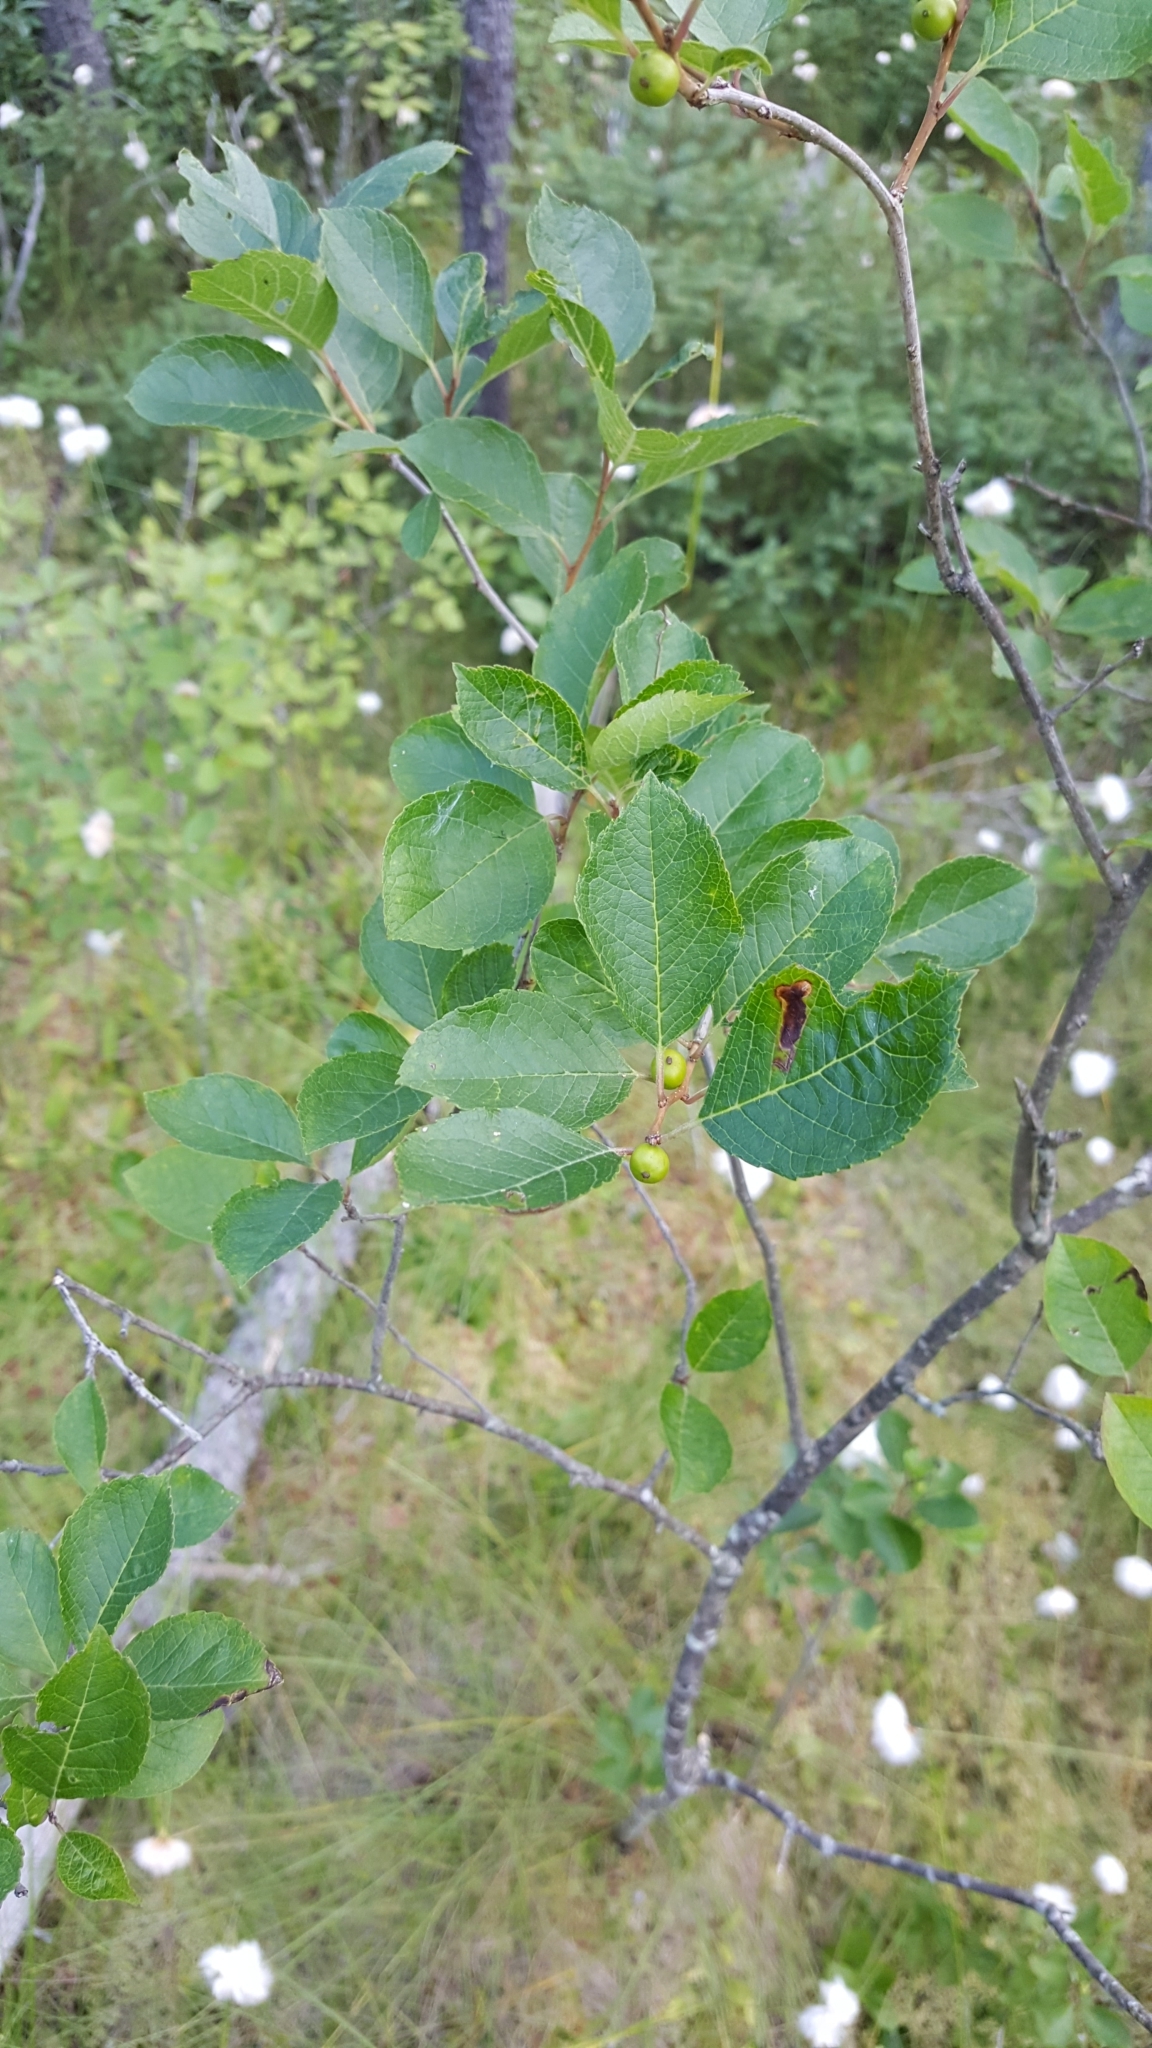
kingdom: Plantae
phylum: Tracheophyta
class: Magnoliopsida
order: Aquifoliales
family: Aquifoliaceae
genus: Ilex
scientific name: Ilex verticillata
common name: Virginia winterberry
